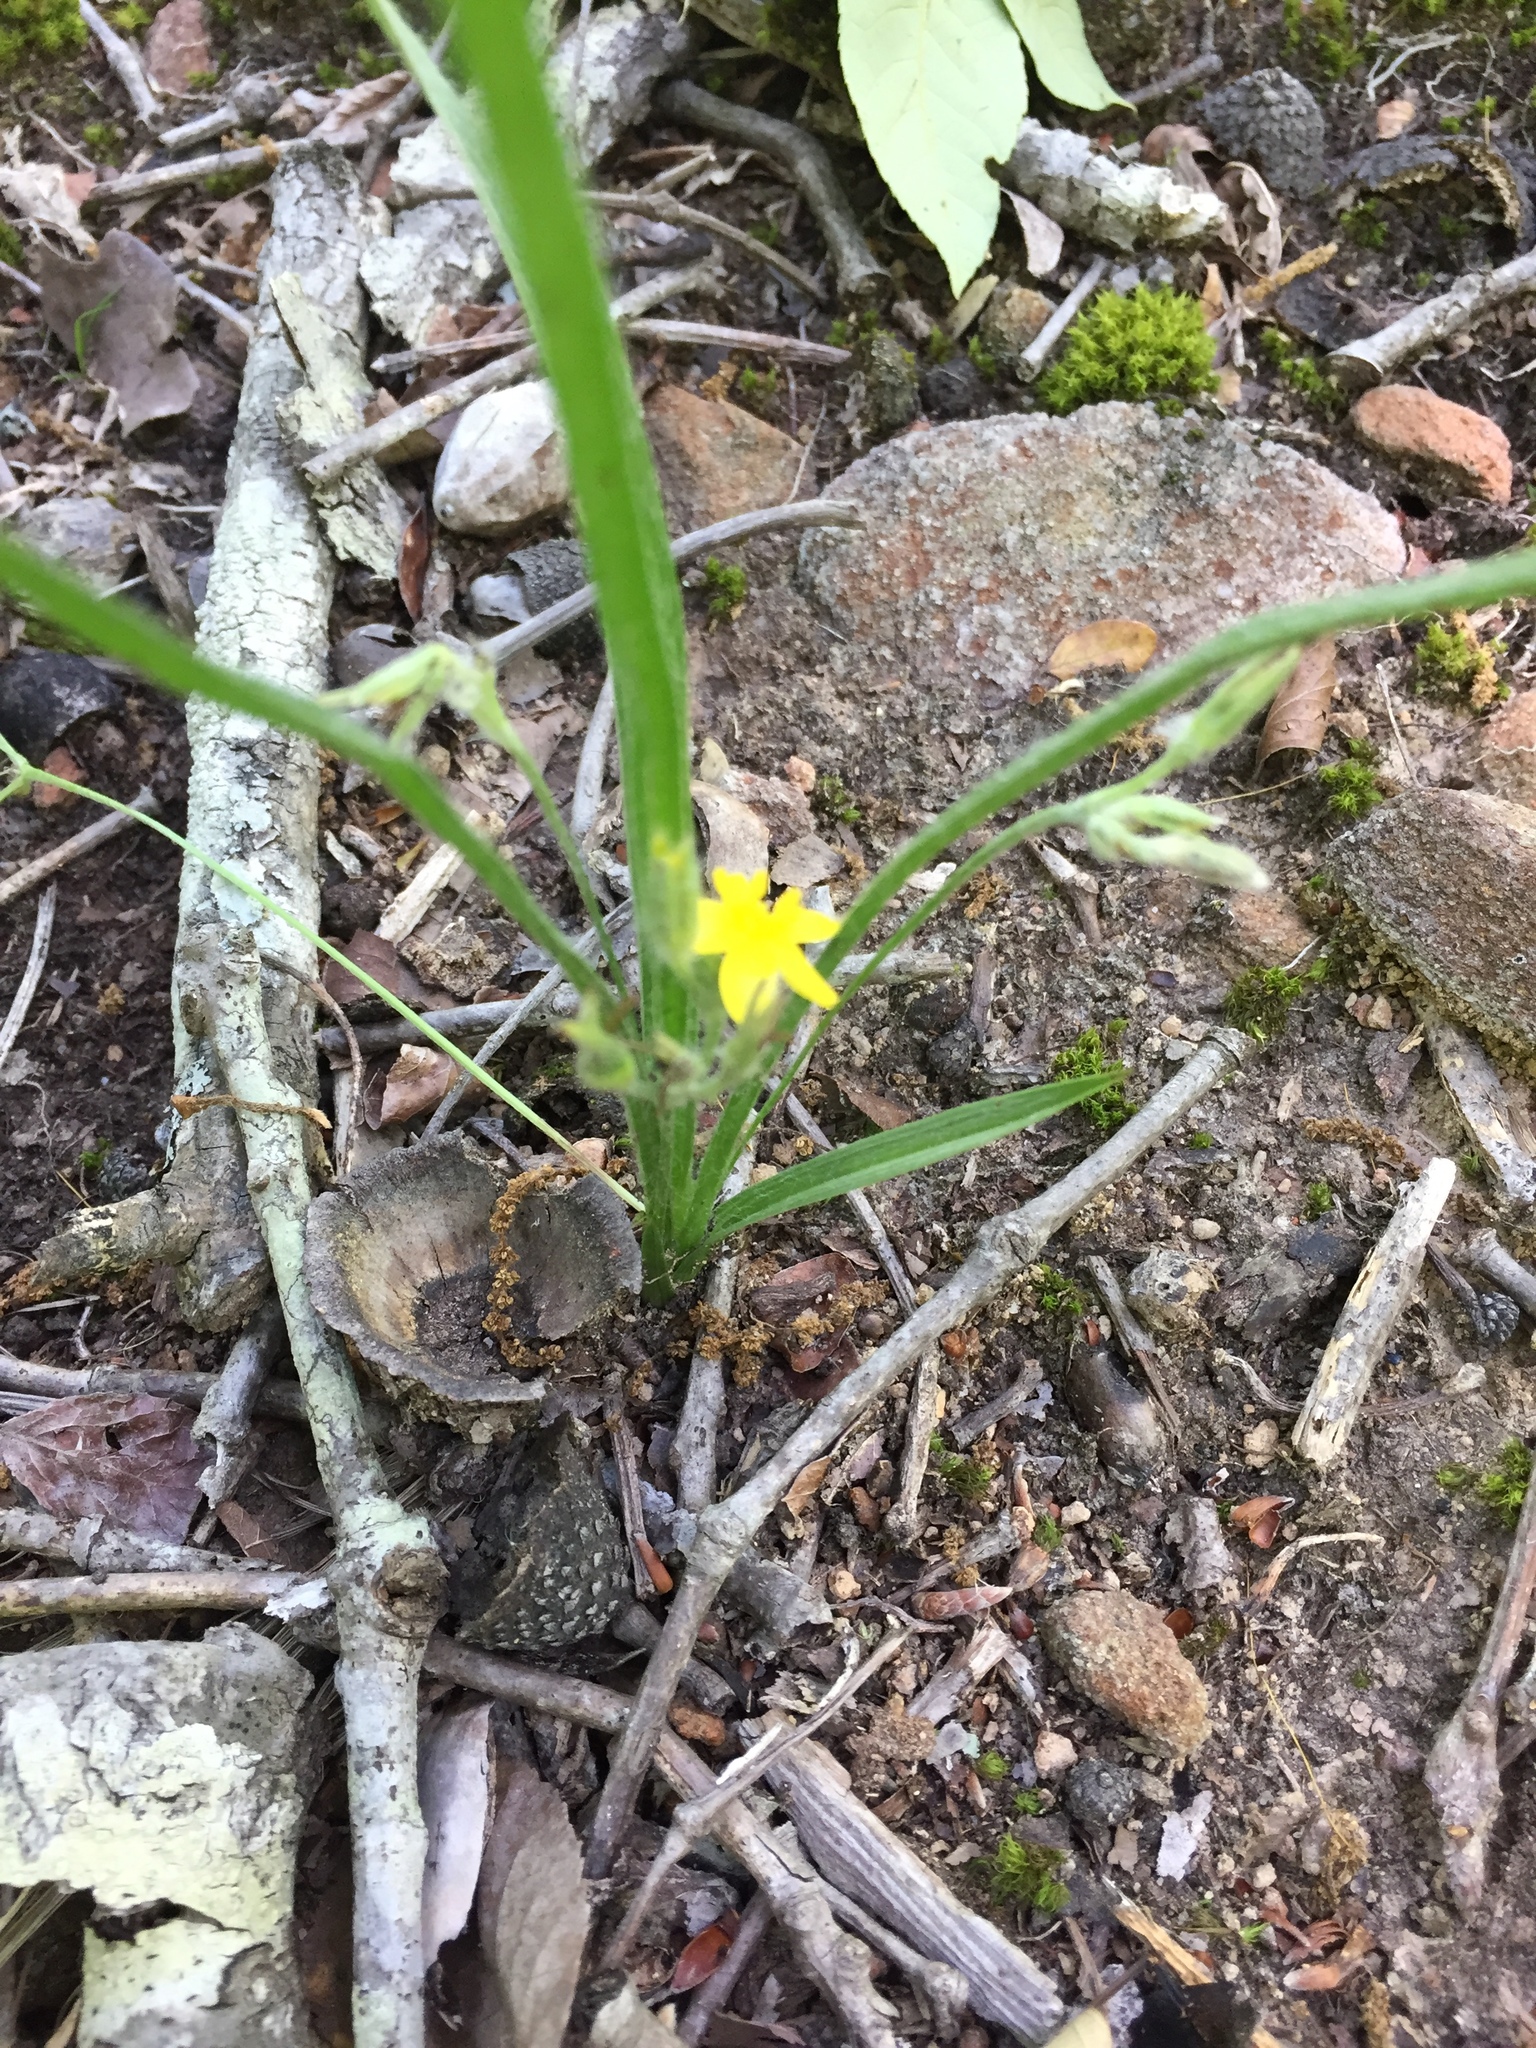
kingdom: Plantae
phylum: Tracheophyta
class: Liliopsida
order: Asparagales
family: Hypoxidaceae
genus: Hypoxis
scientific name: Hypoxis hirsuta
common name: Common goldstar
